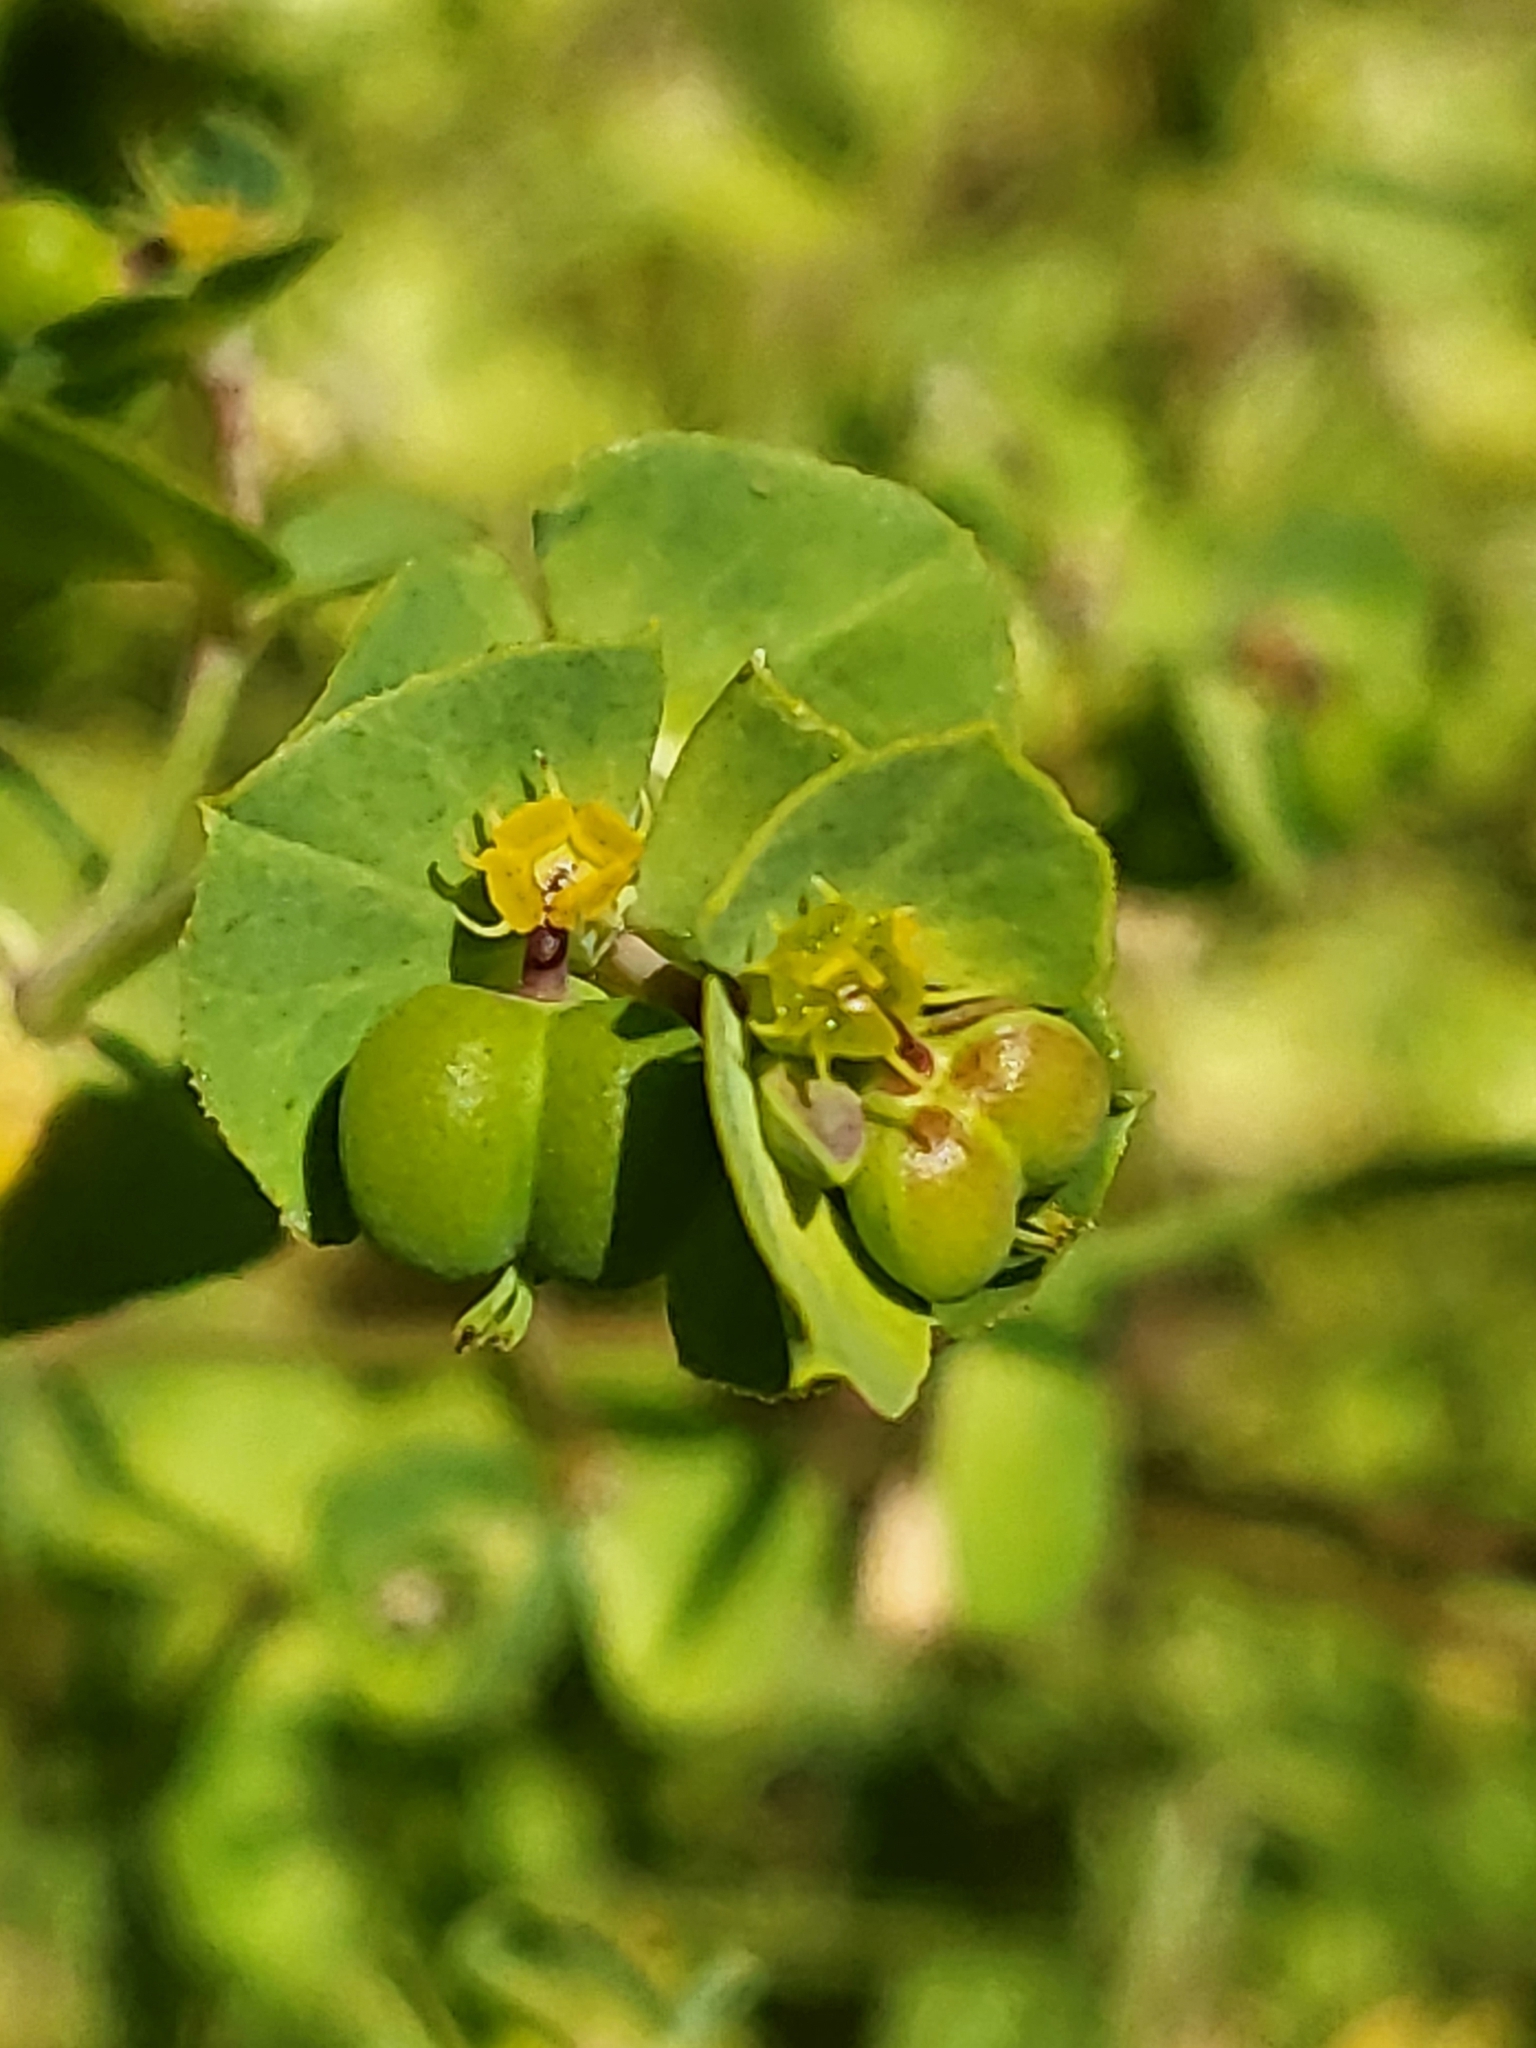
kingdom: Plantae
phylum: Tracheophyta
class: Magnoliopsida
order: Malpighiales
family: Euphorbiaceae
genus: Euphorbia
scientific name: Euphorbia terracina
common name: Geraldton carnation weed
